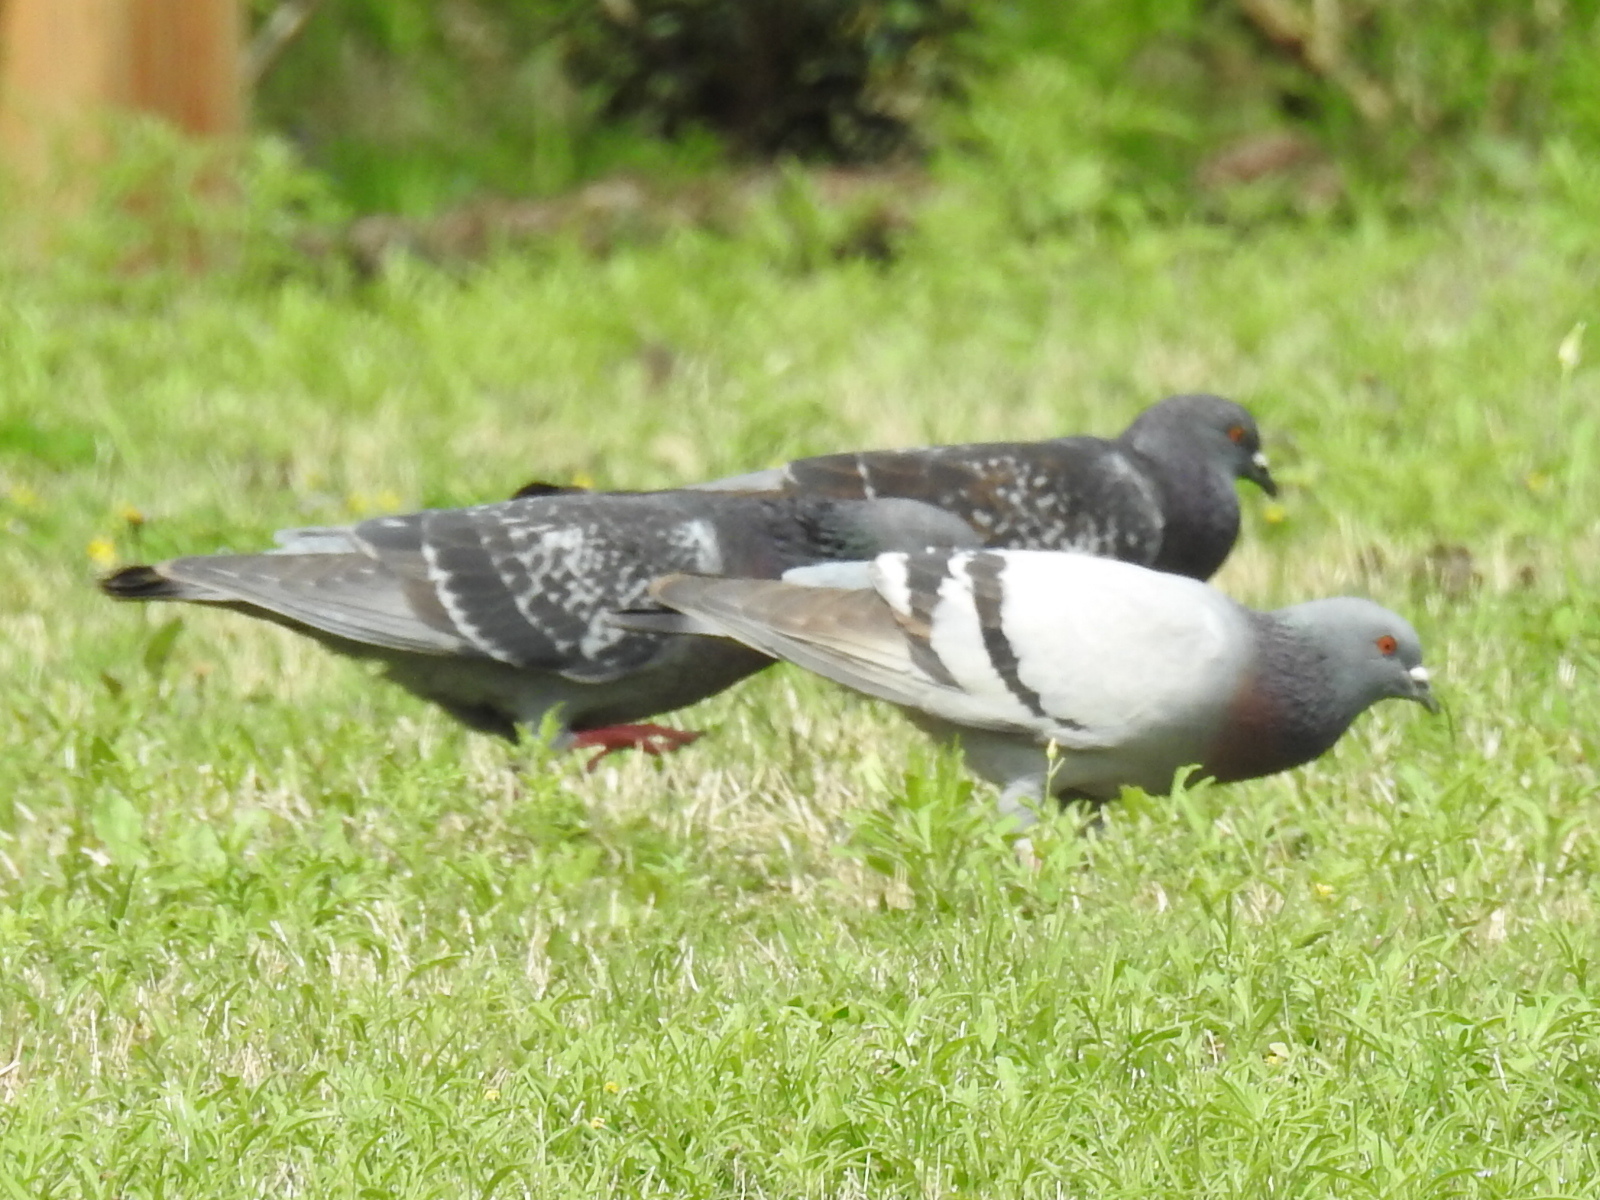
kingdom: Animalia
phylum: Chordata
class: Aves
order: Columbiformes
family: Columbidae
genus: Columba
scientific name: Columba livia
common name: Rock pigeon
